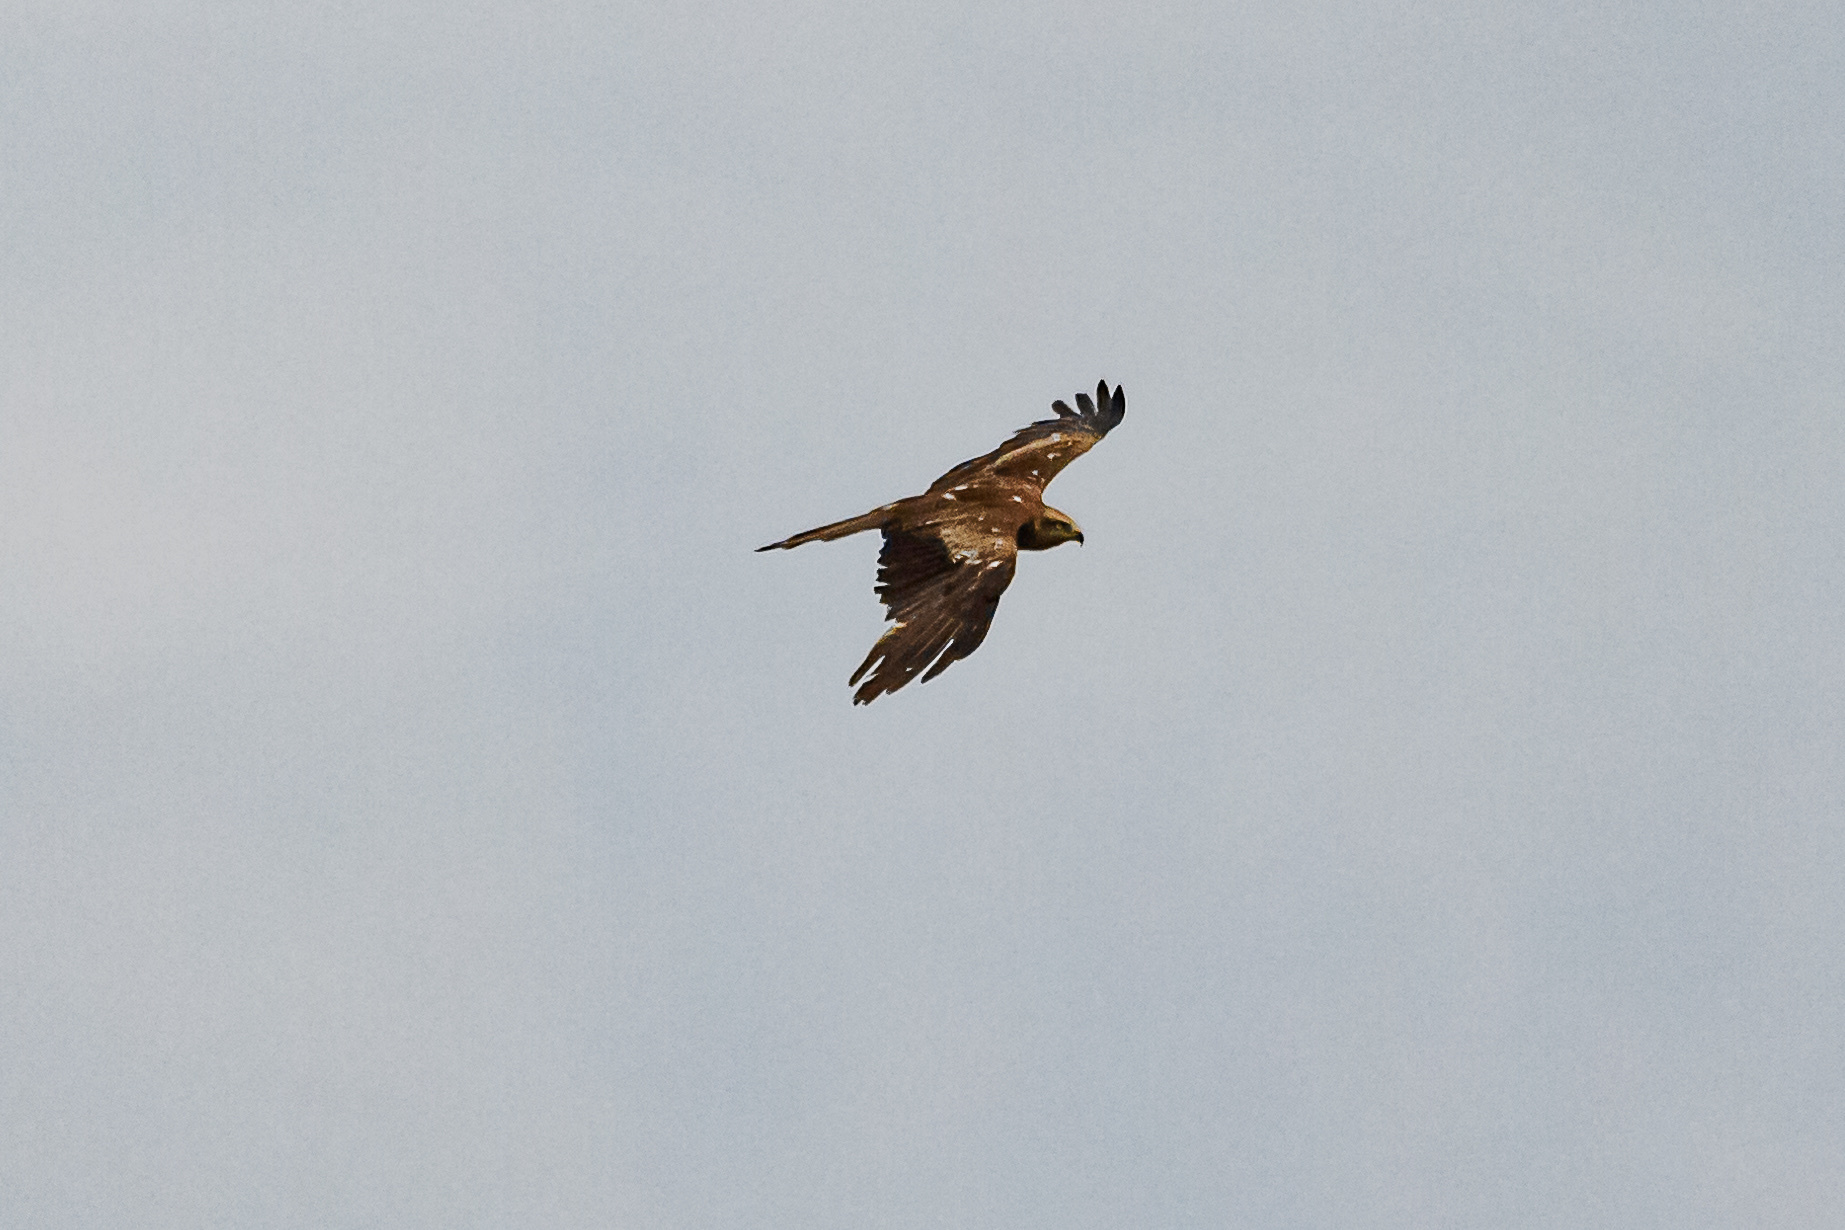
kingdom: Animalia
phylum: Chordata
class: Aves
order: Accipitriformes
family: Accipitridae
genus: Milvus
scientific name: Milvus migrans
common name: Black kite
